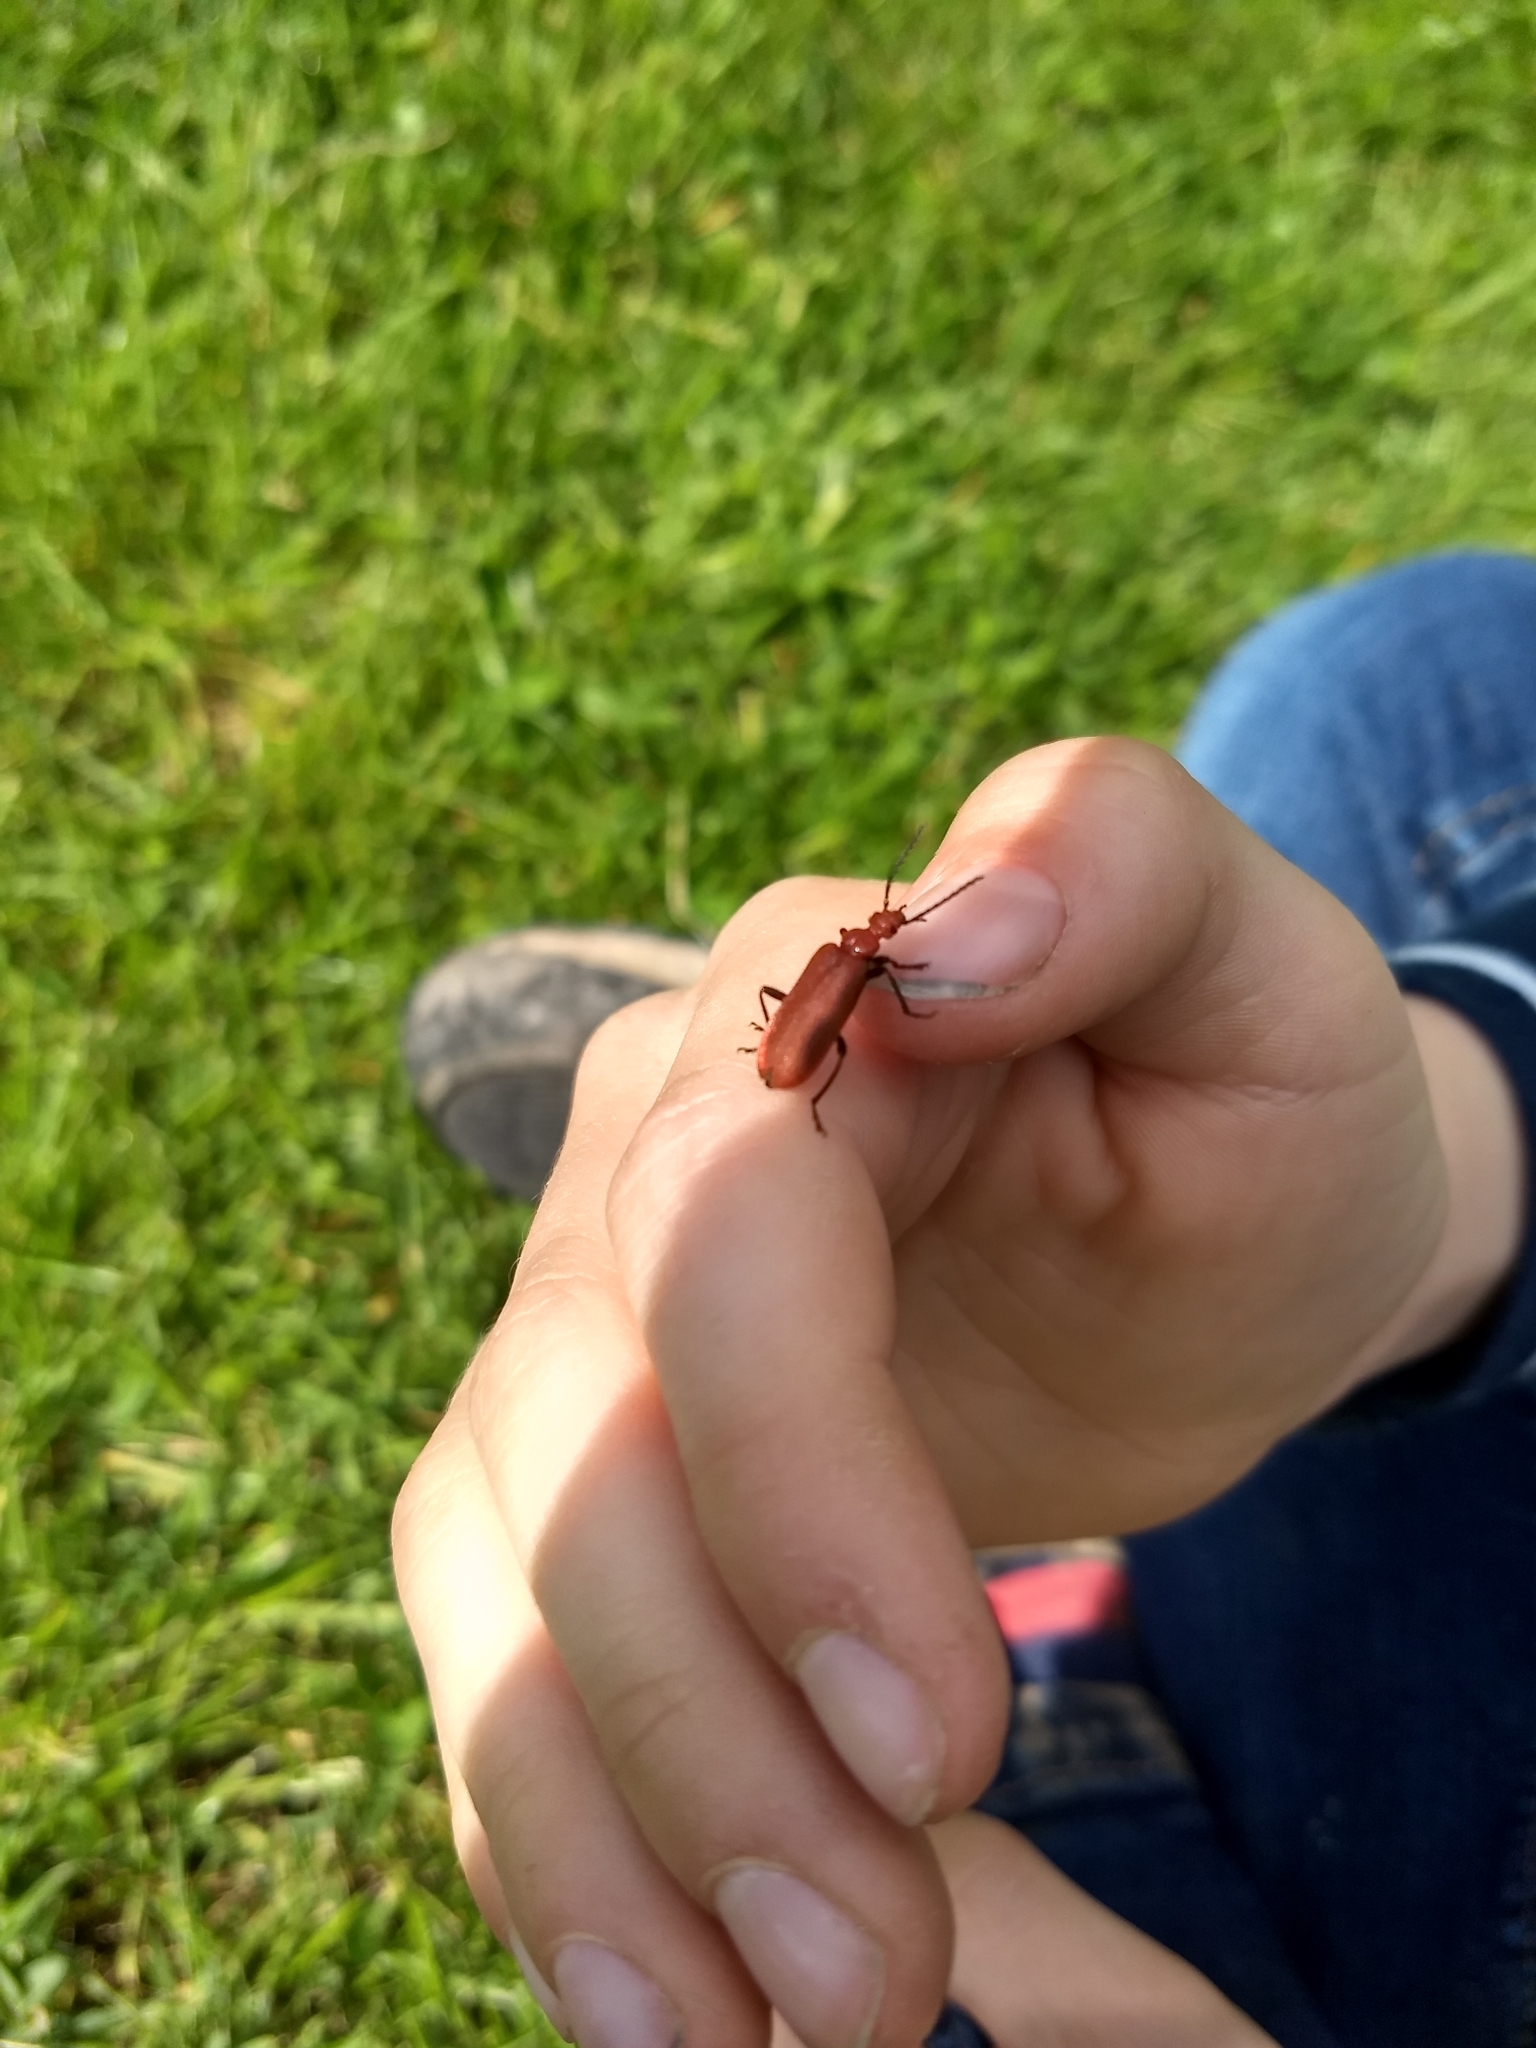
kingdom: Animalia
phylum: Arthropoda
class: Insecta
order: Coleoptera
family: Pyrochroidae
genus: Pyrochroa
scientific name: Pyrochroa serraticornis
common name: Red-headed cardinal beetle
